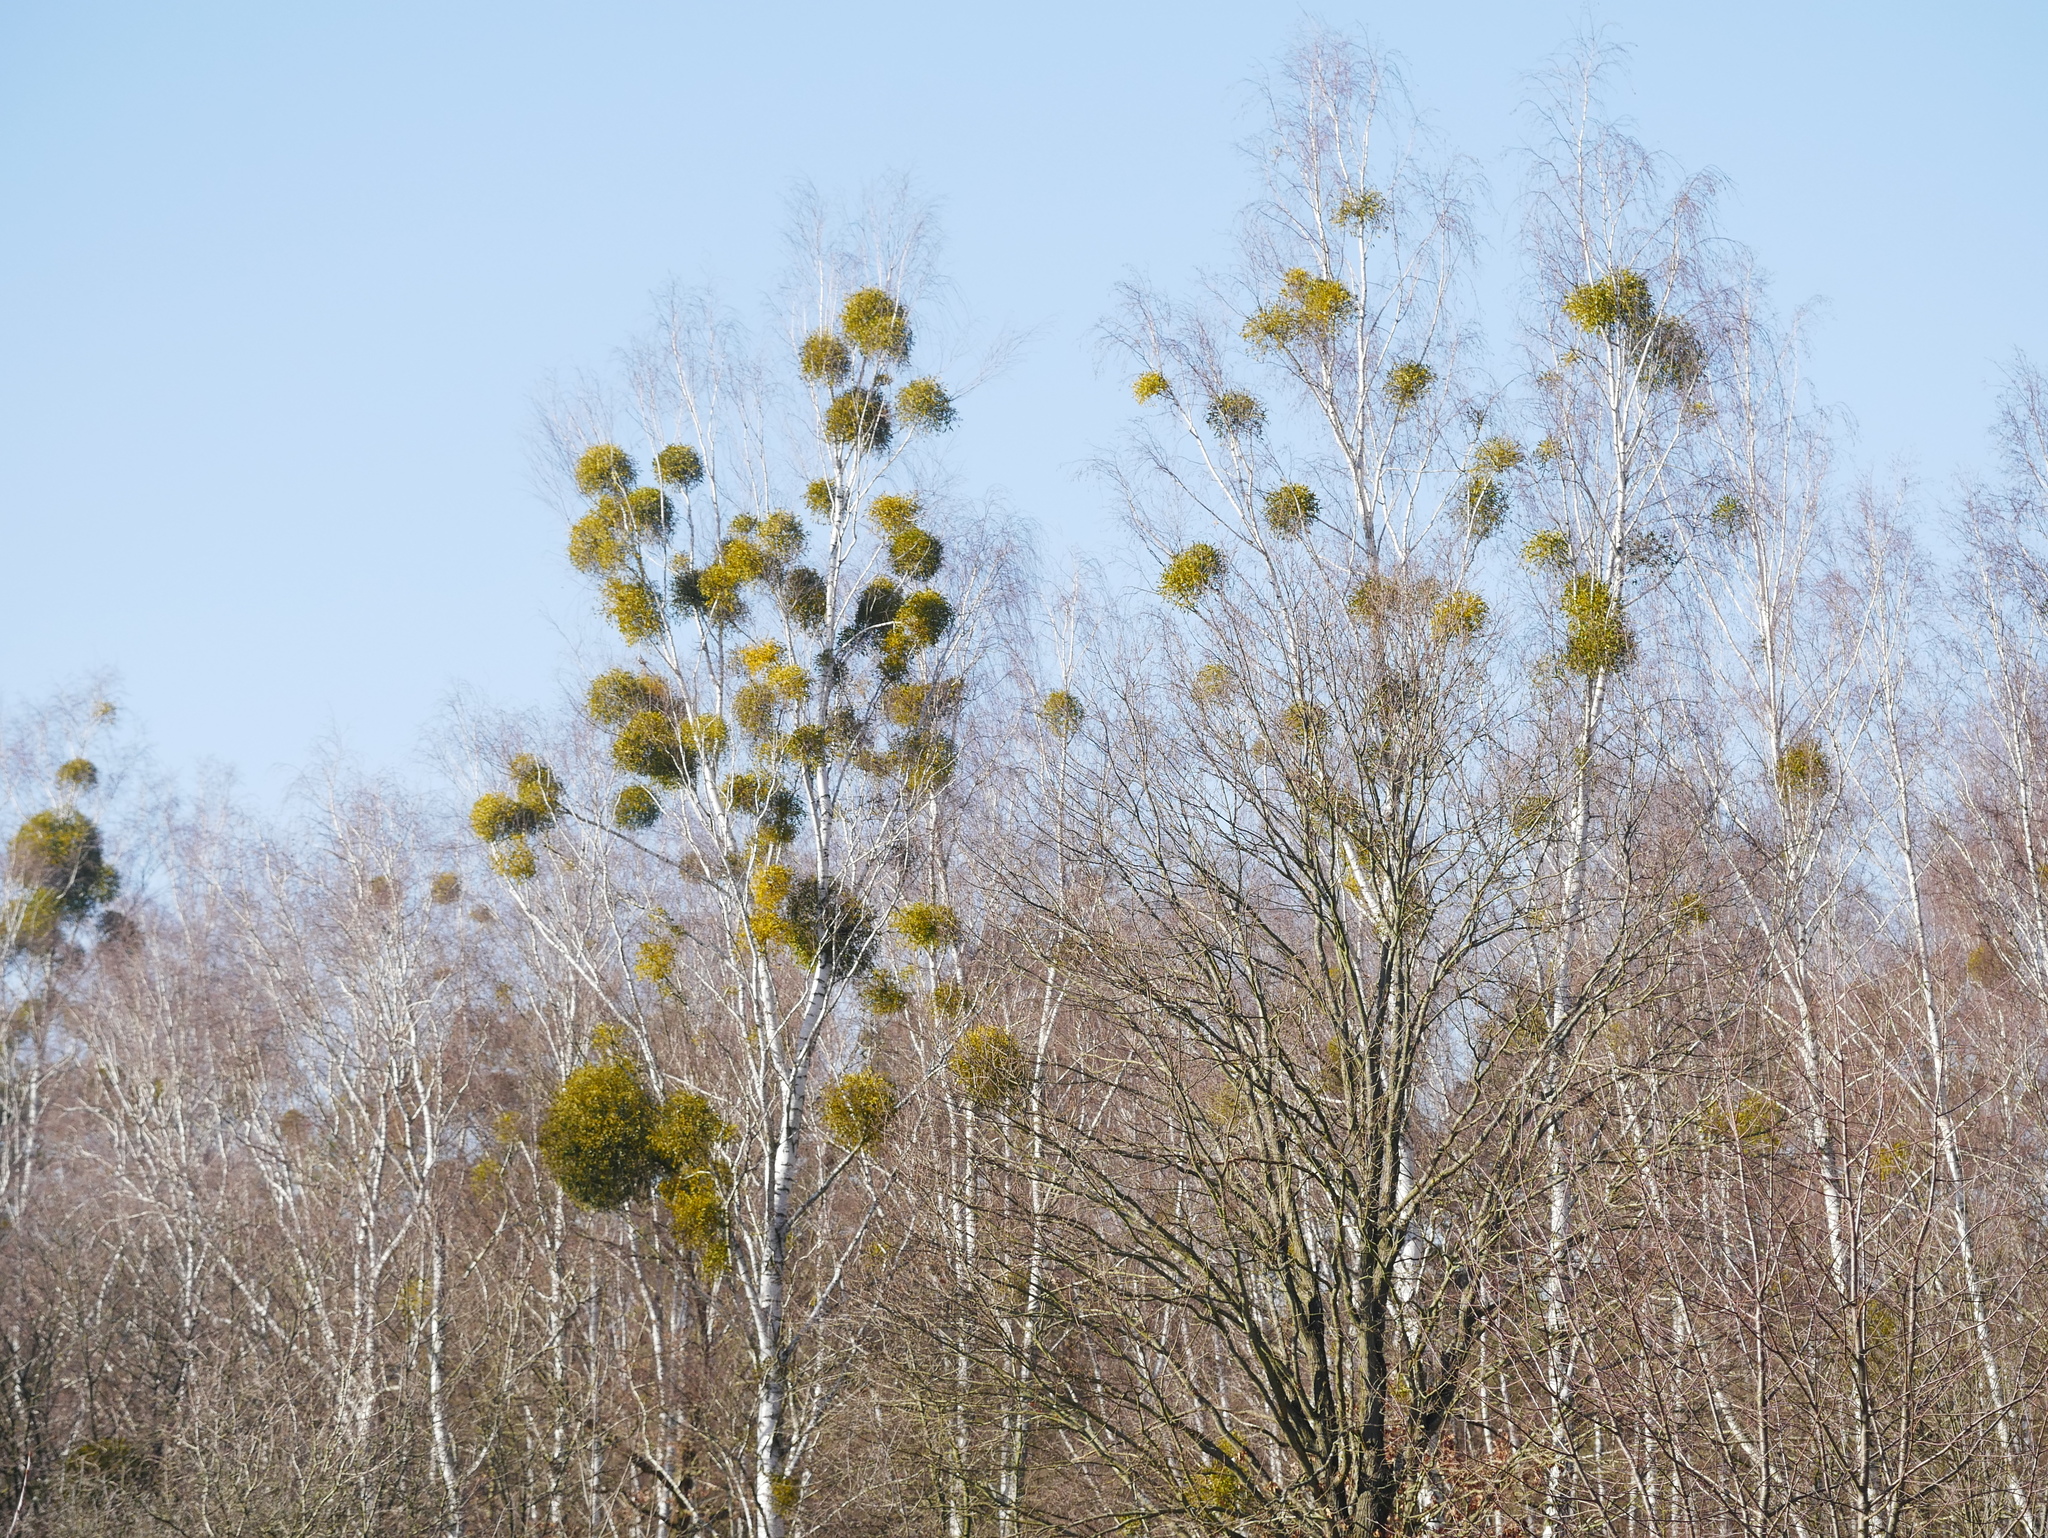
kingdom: Plantae
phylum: Tracheophyta
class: Magnoliopsida
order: Fagales
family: Betulaceae
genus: Betula
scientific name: Betula pendula
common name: Silver birch
